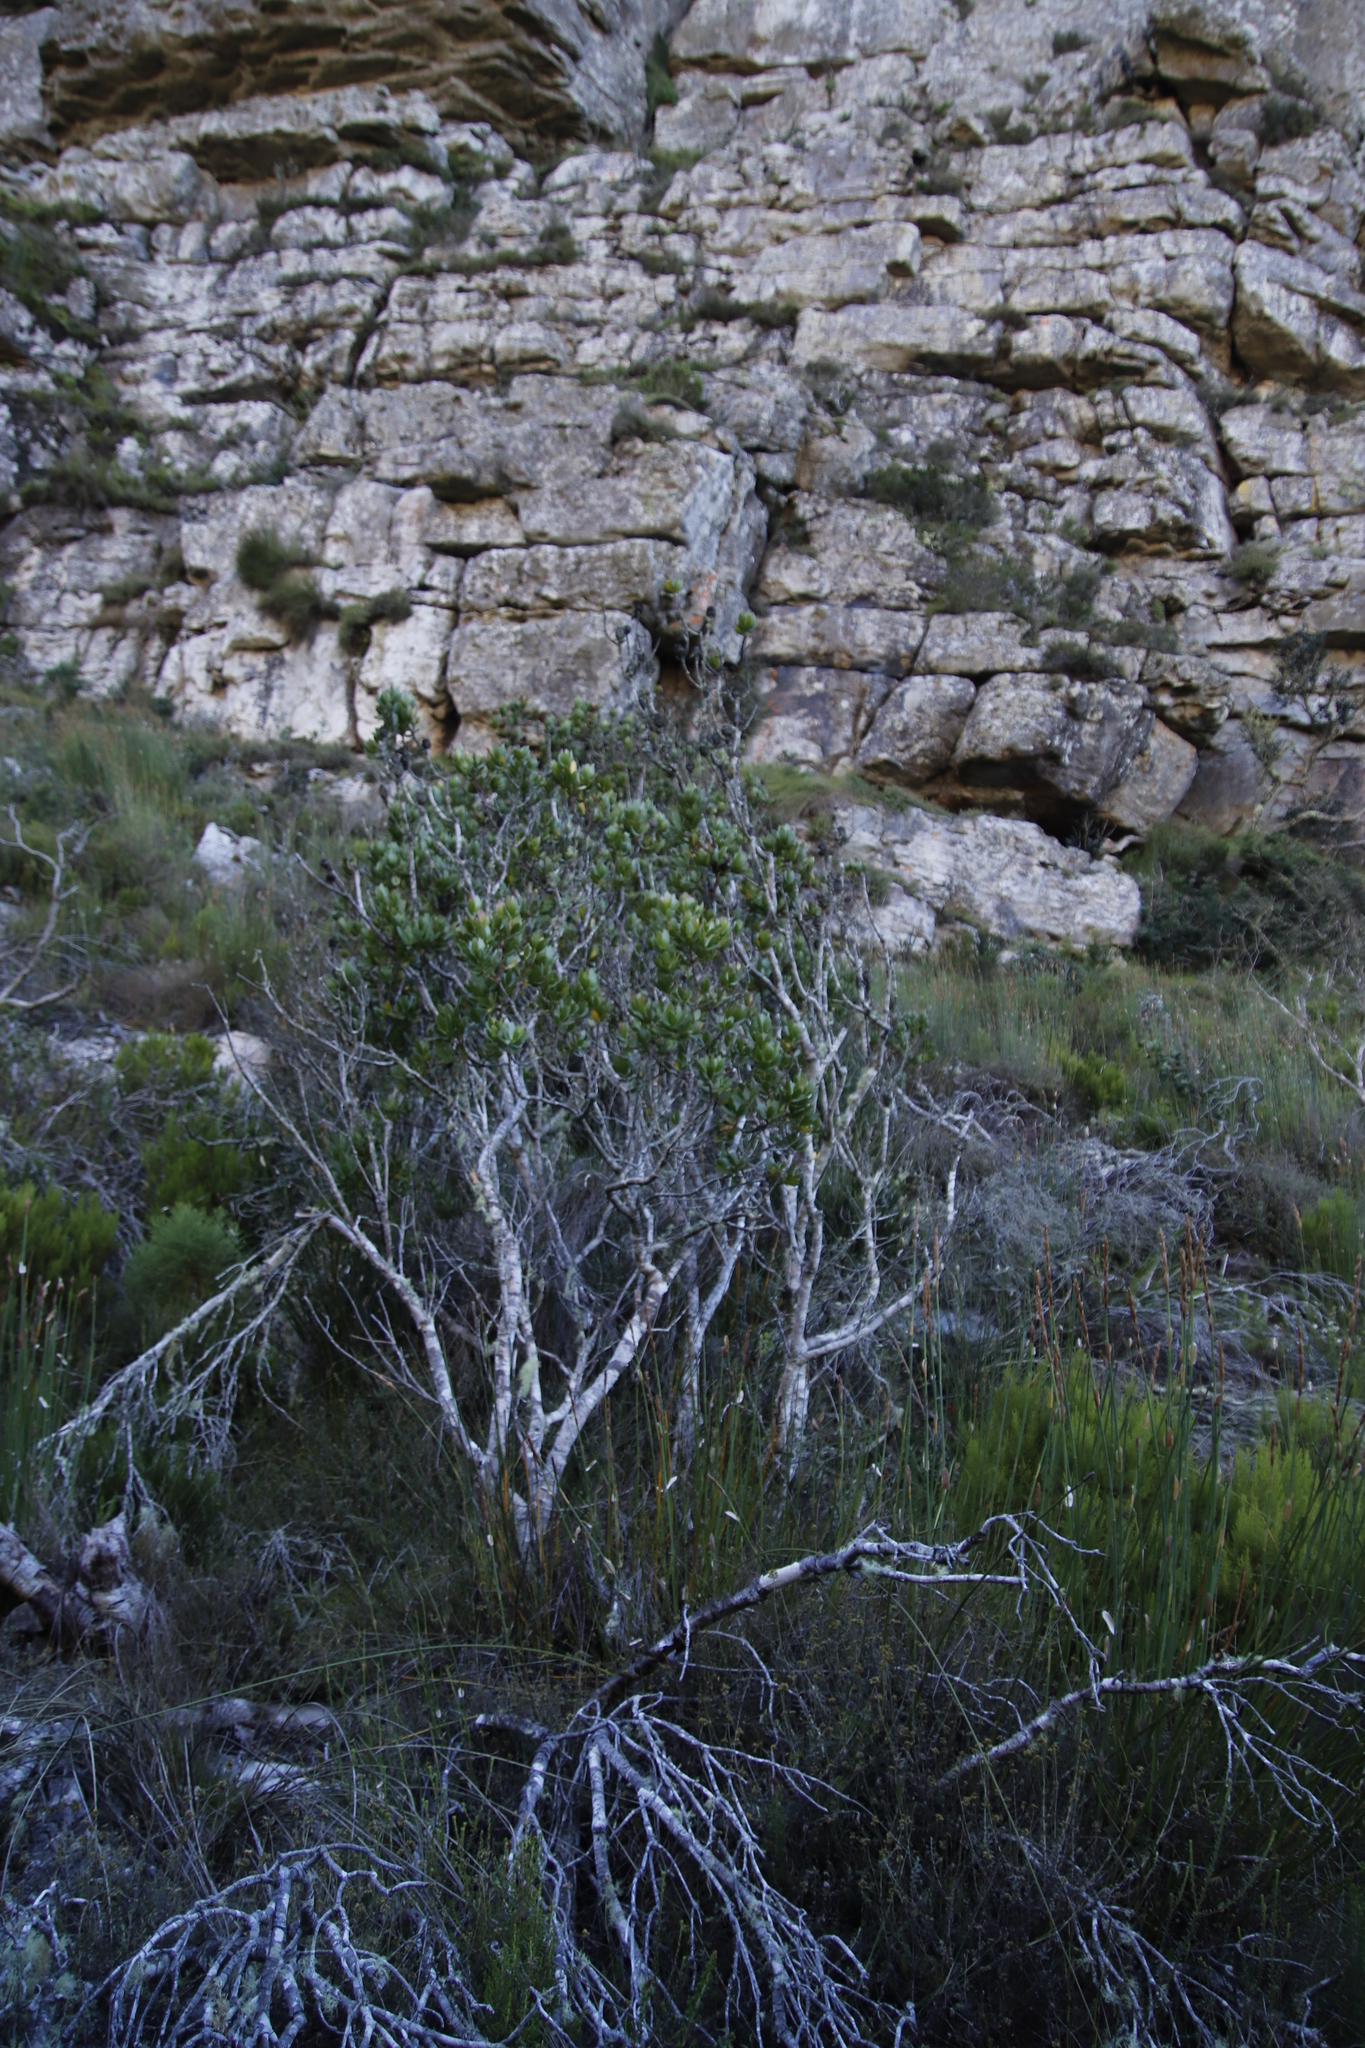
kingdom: Plantae
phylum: Tracheophyta
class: Magnoliopsida
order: Proteales
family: Proteaceae
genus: Leucadendron
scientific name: Leucadendron strobilinum
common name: Mountain rose
